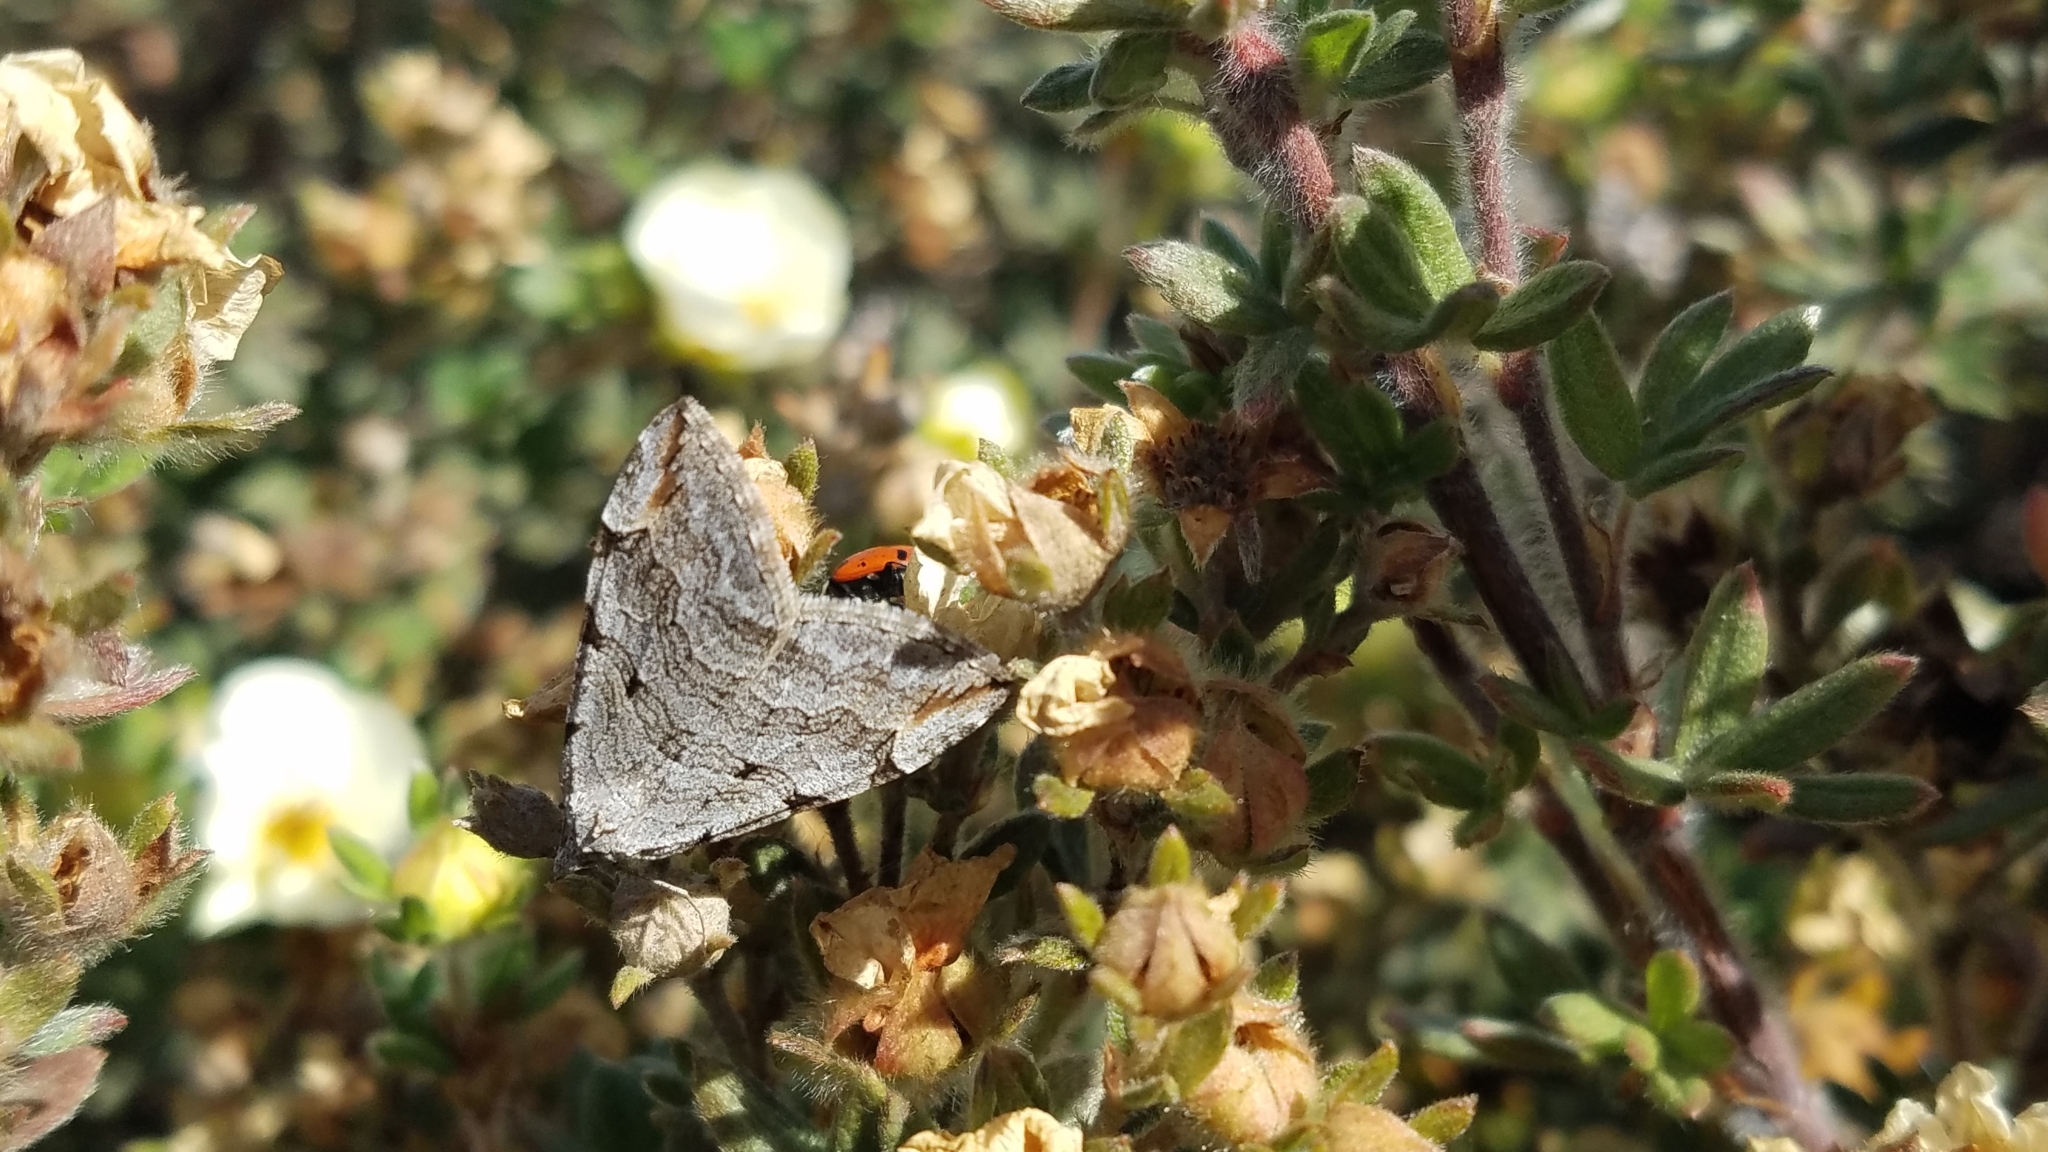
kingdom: Animalia
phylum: Arthropoda
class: Insecta
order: Lepidoptera
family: Geometridae
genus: Aplocera
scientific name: Aplocera plagiata
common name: Treble-bar
